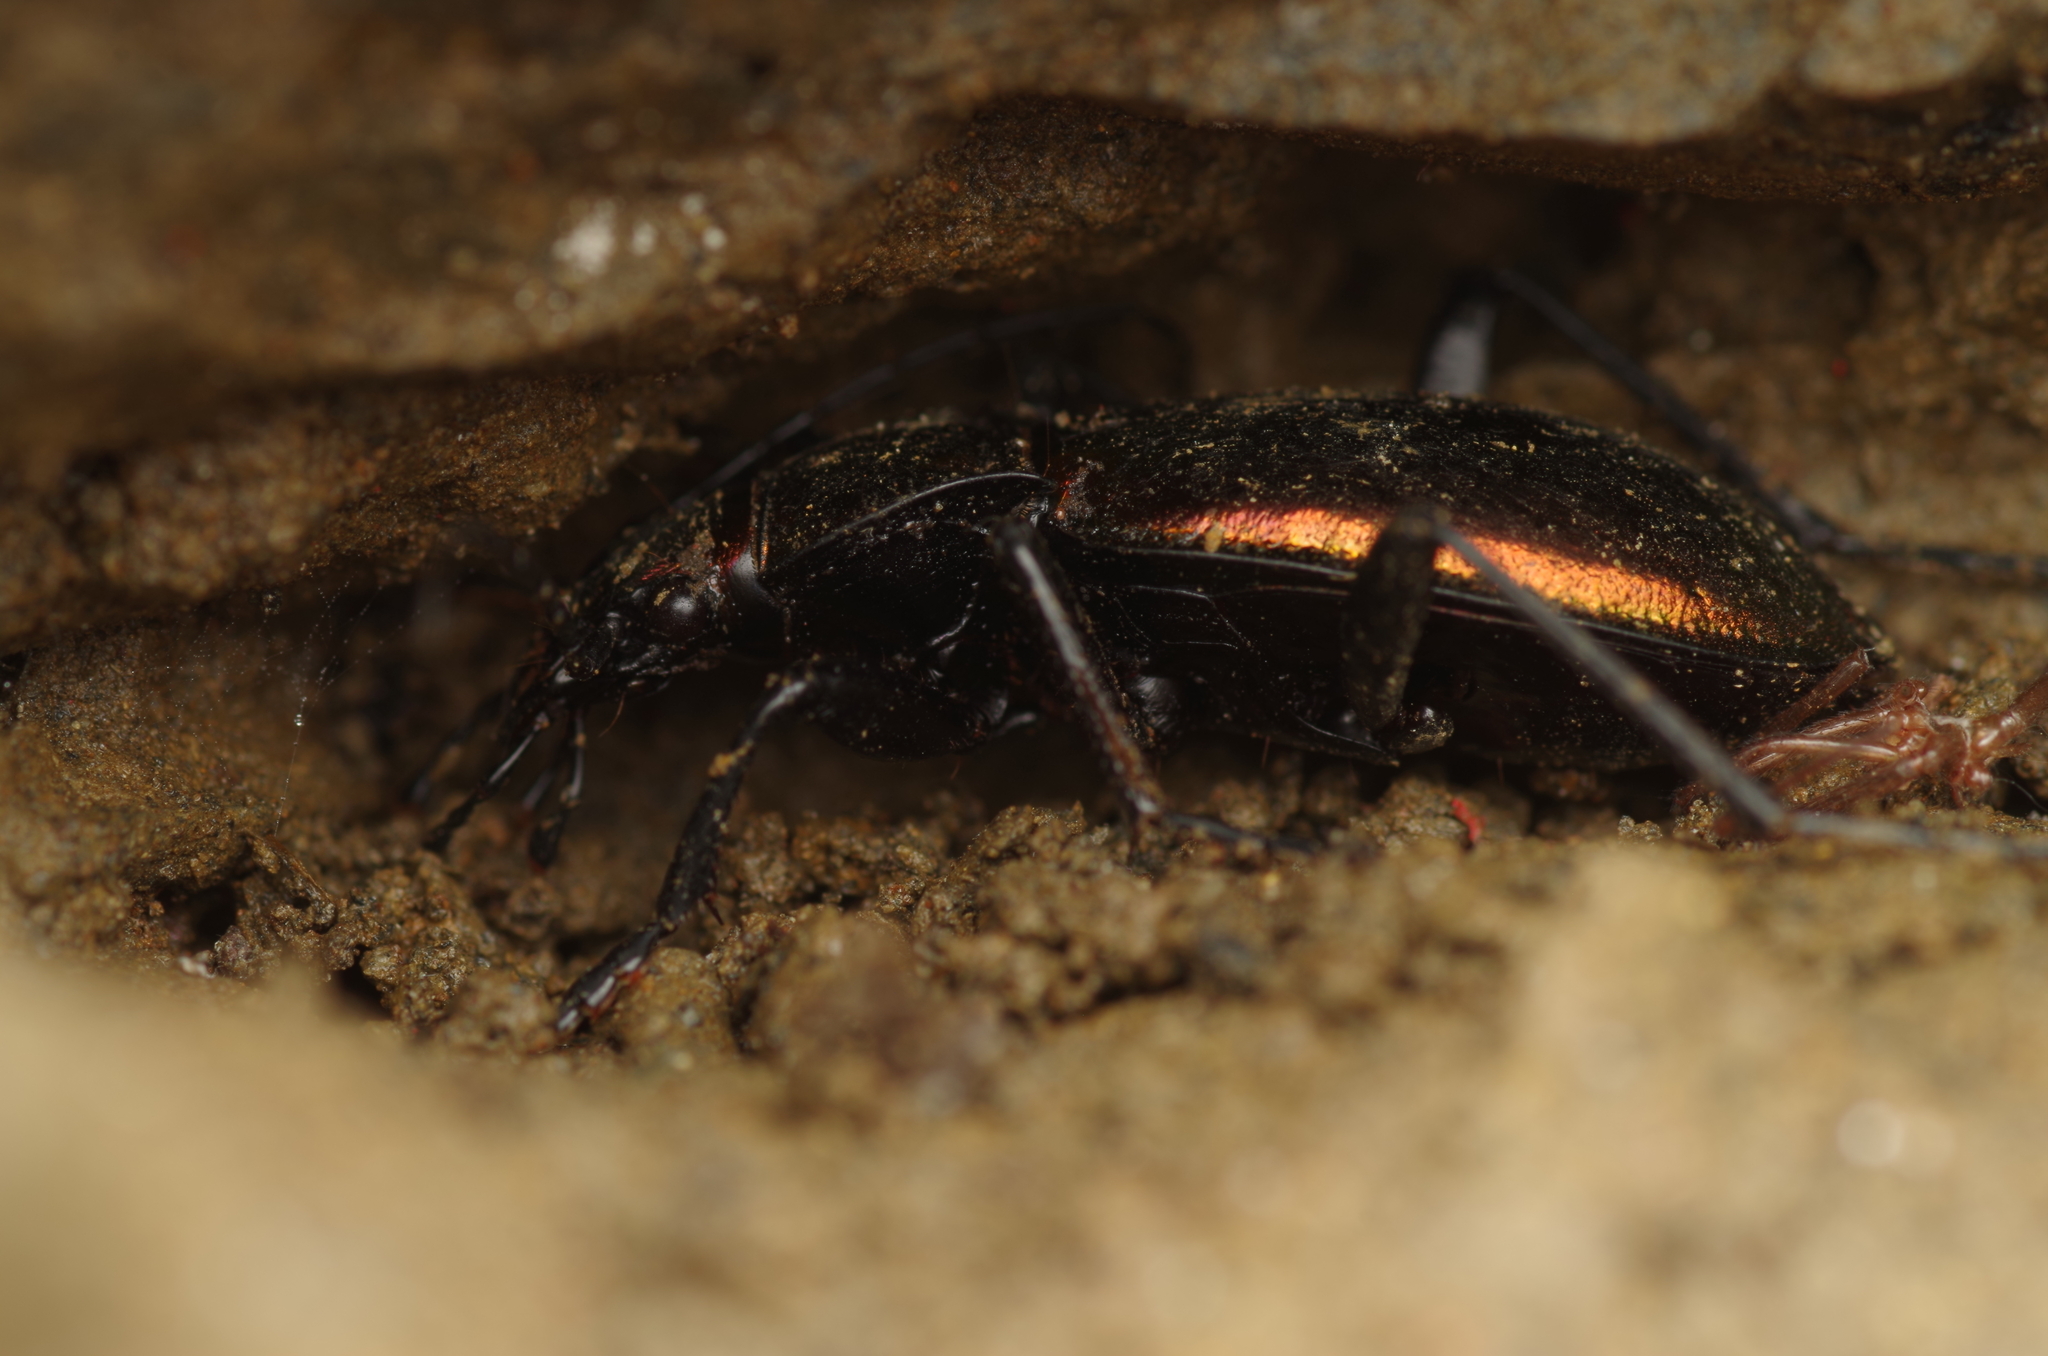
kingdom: Animalia
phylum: Arthropoda
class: Insecta
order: Coleoptera
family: Carabidae
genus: Carabus
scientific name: Carabus splendens
